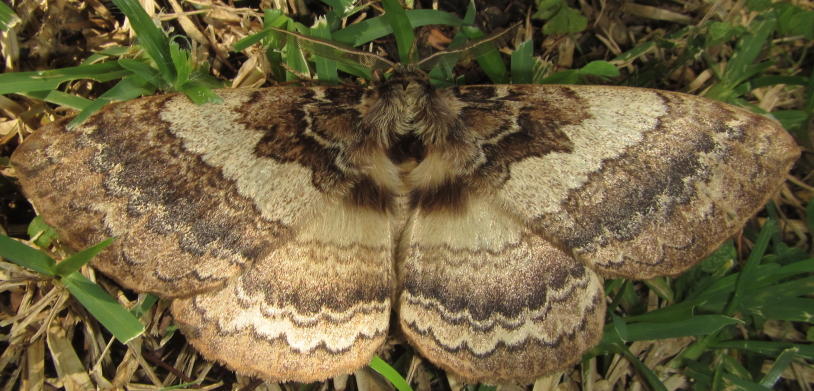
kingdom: Animalia
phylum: Arthropoda
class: Insecta
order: Lepidoptera
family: Eupterotidae
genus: Striphnopteryx
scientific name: Striphnopteryx edulis
